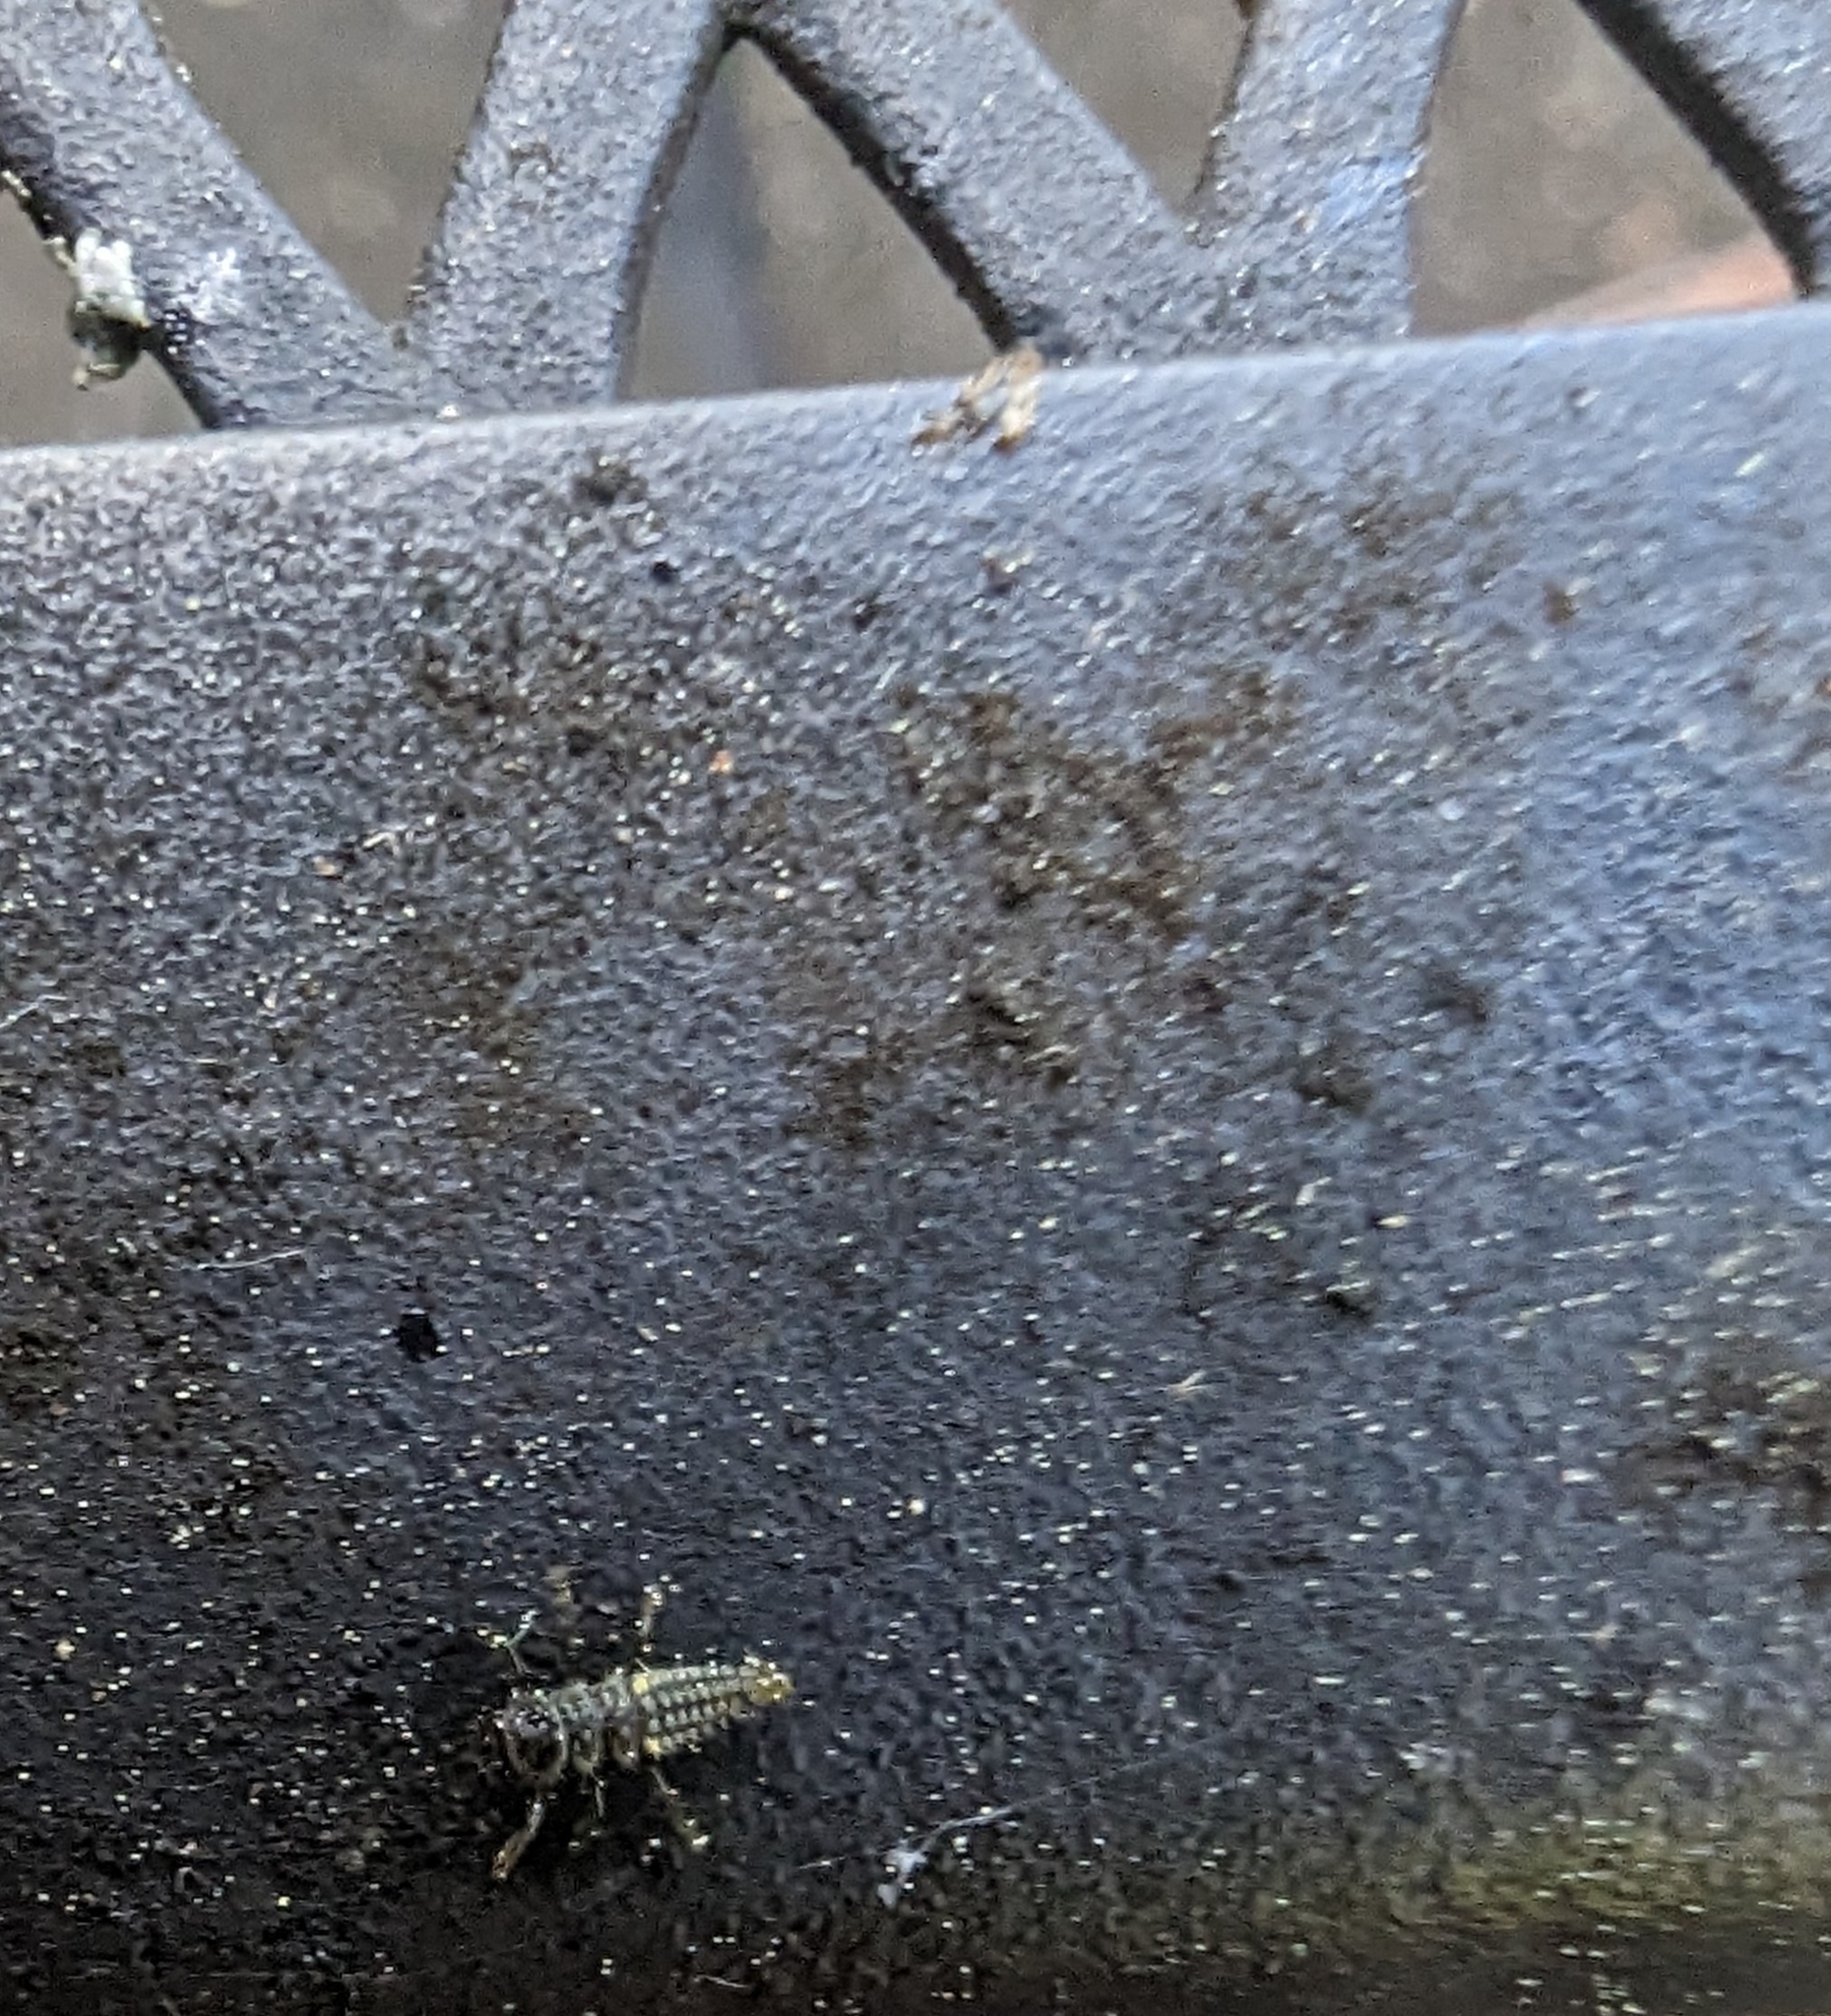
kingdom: Animalia
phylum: Arthropoda
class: Insecta
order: Coleoptera
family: Coccinellidae
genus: Harmonia
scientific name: Harmonia axyridis
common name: Harlequin ladybird
